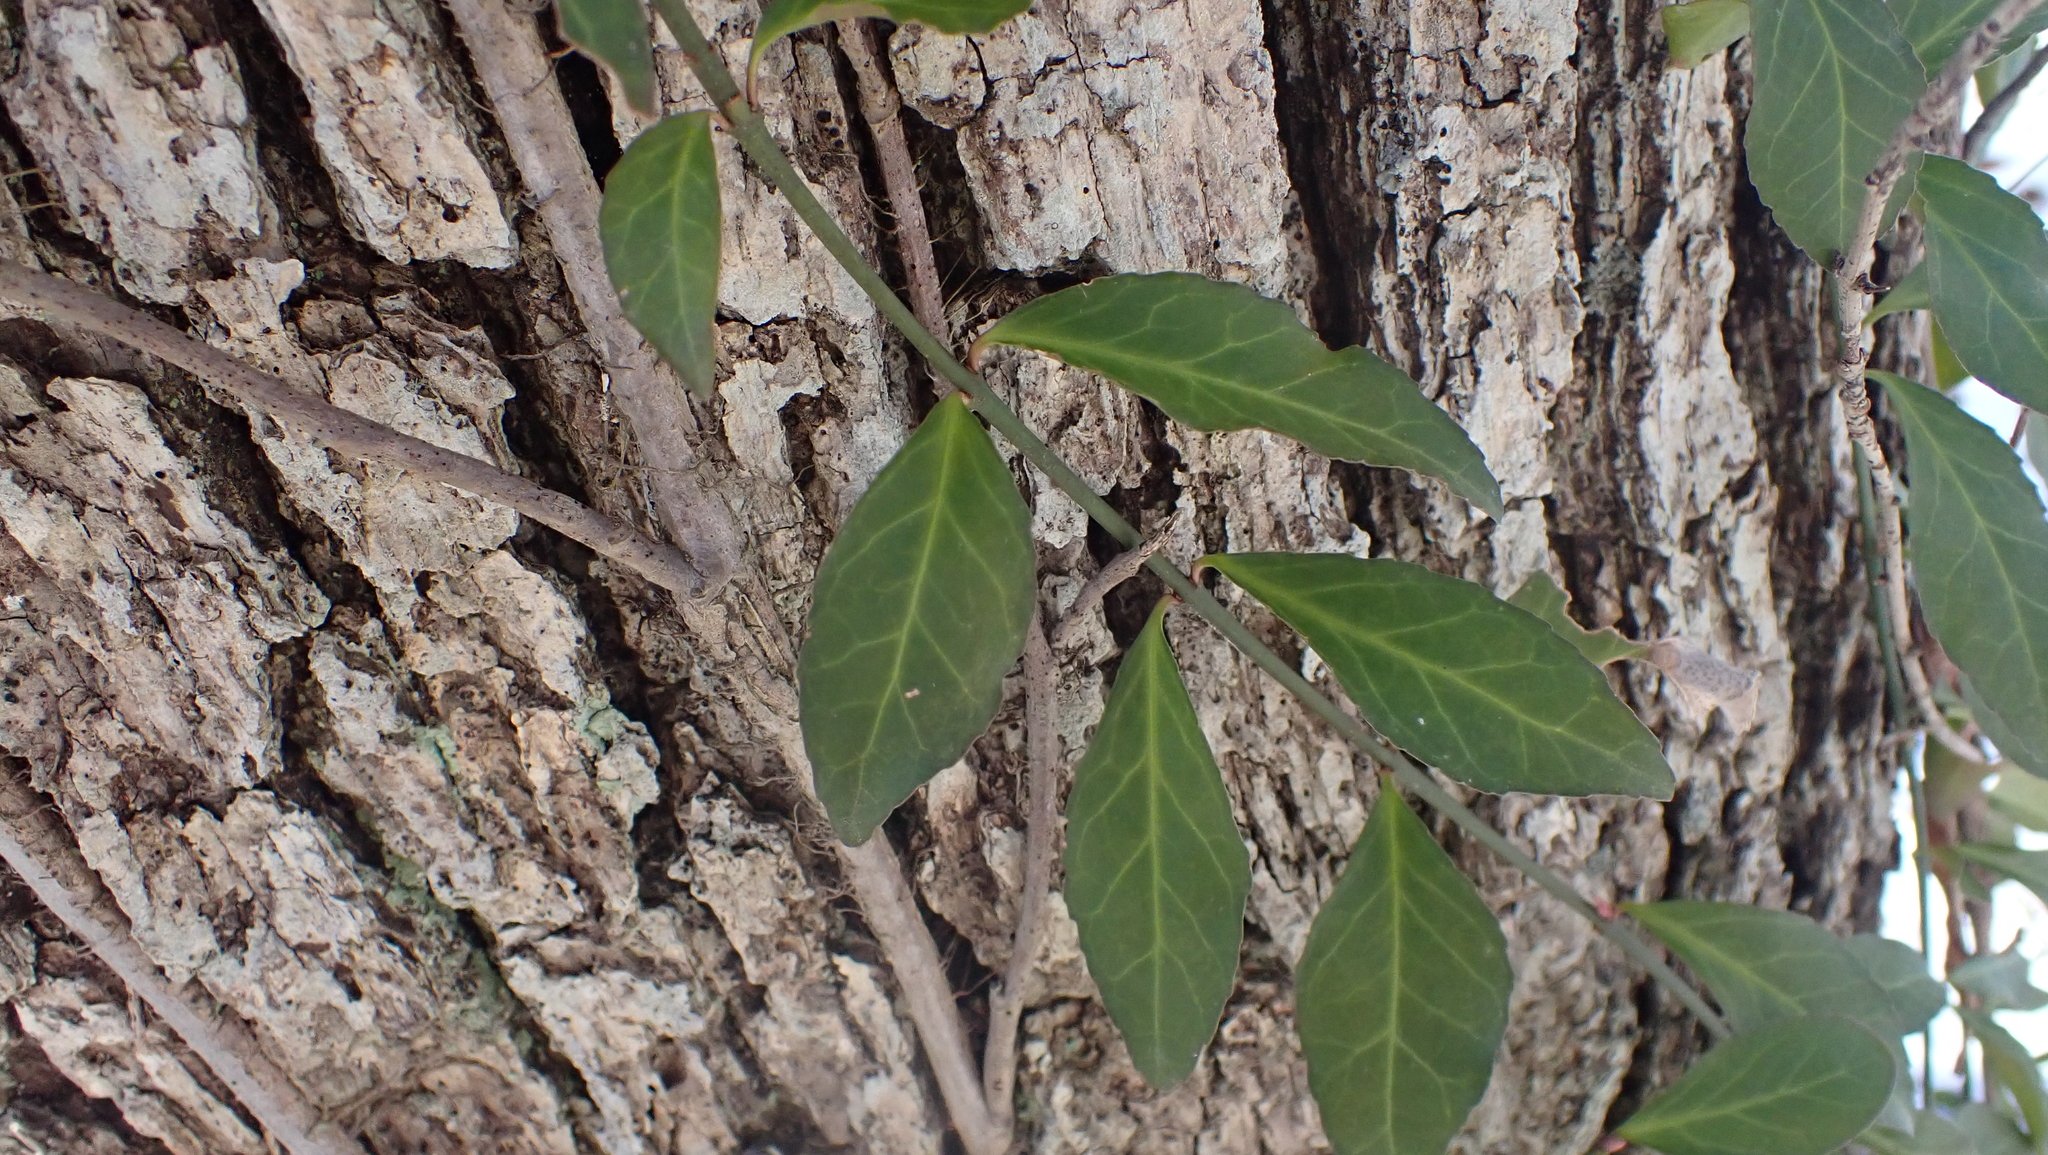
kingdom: Plantae
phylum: Tracheophyta
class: Magnoliopsida
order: Celastrales
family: Celastraceae
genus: Euonymus
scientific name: Euonymus fortunei
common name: Climbing euonymus
